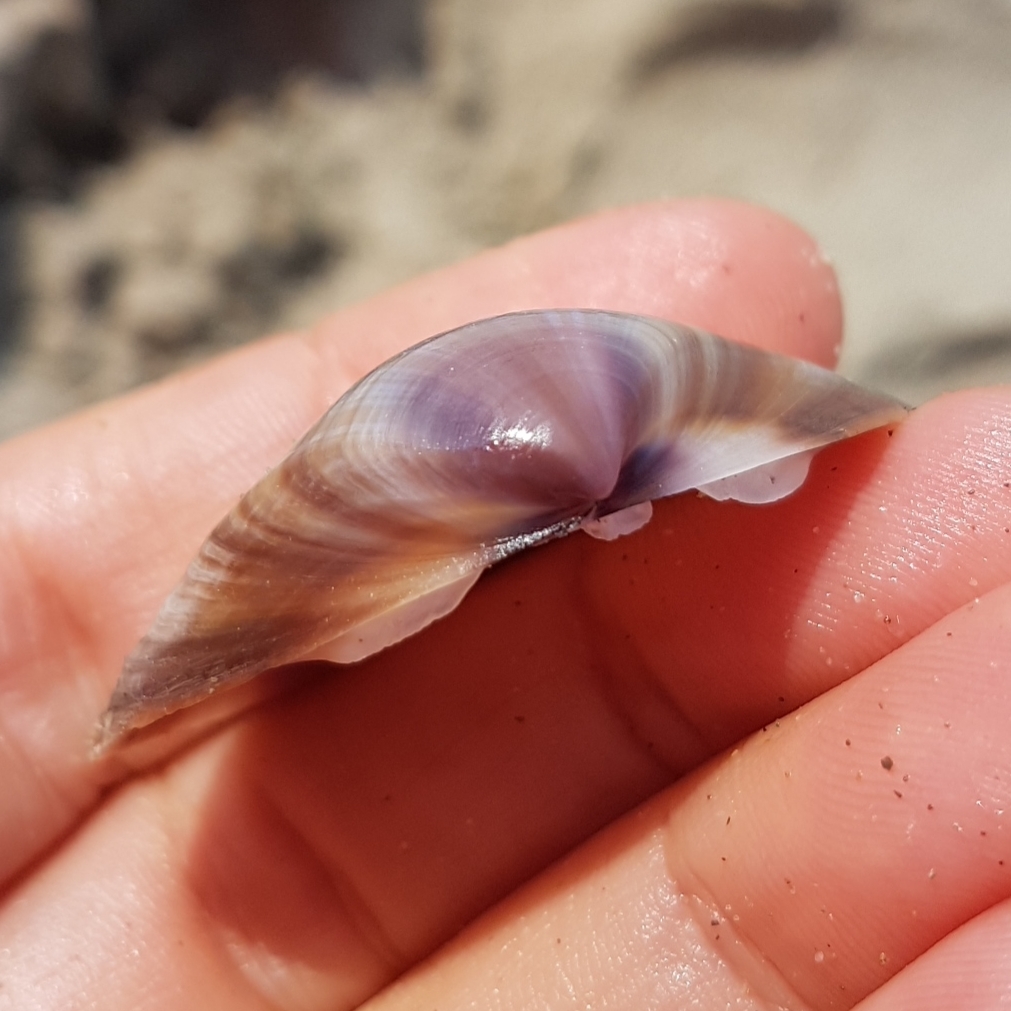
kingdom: Animalia
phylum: Mollusca
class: Bivalvia
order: Venerida
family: Mactridae
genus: Mactra
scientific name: Mactra stultorum
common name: Rayed trough shell
